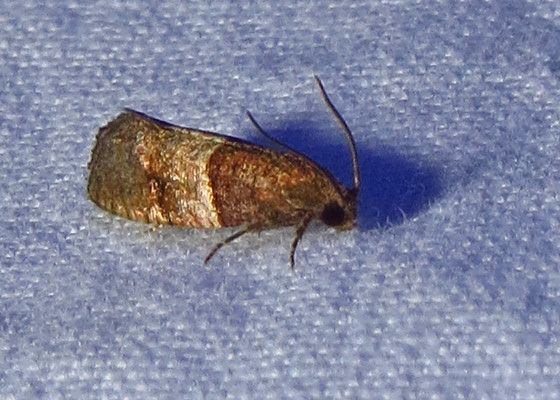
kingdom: Animalia
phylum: Arthropoda
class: Insecta
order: Lepidoptera
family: Tortricidae
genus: Larisa
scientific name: Larisa subsolana
